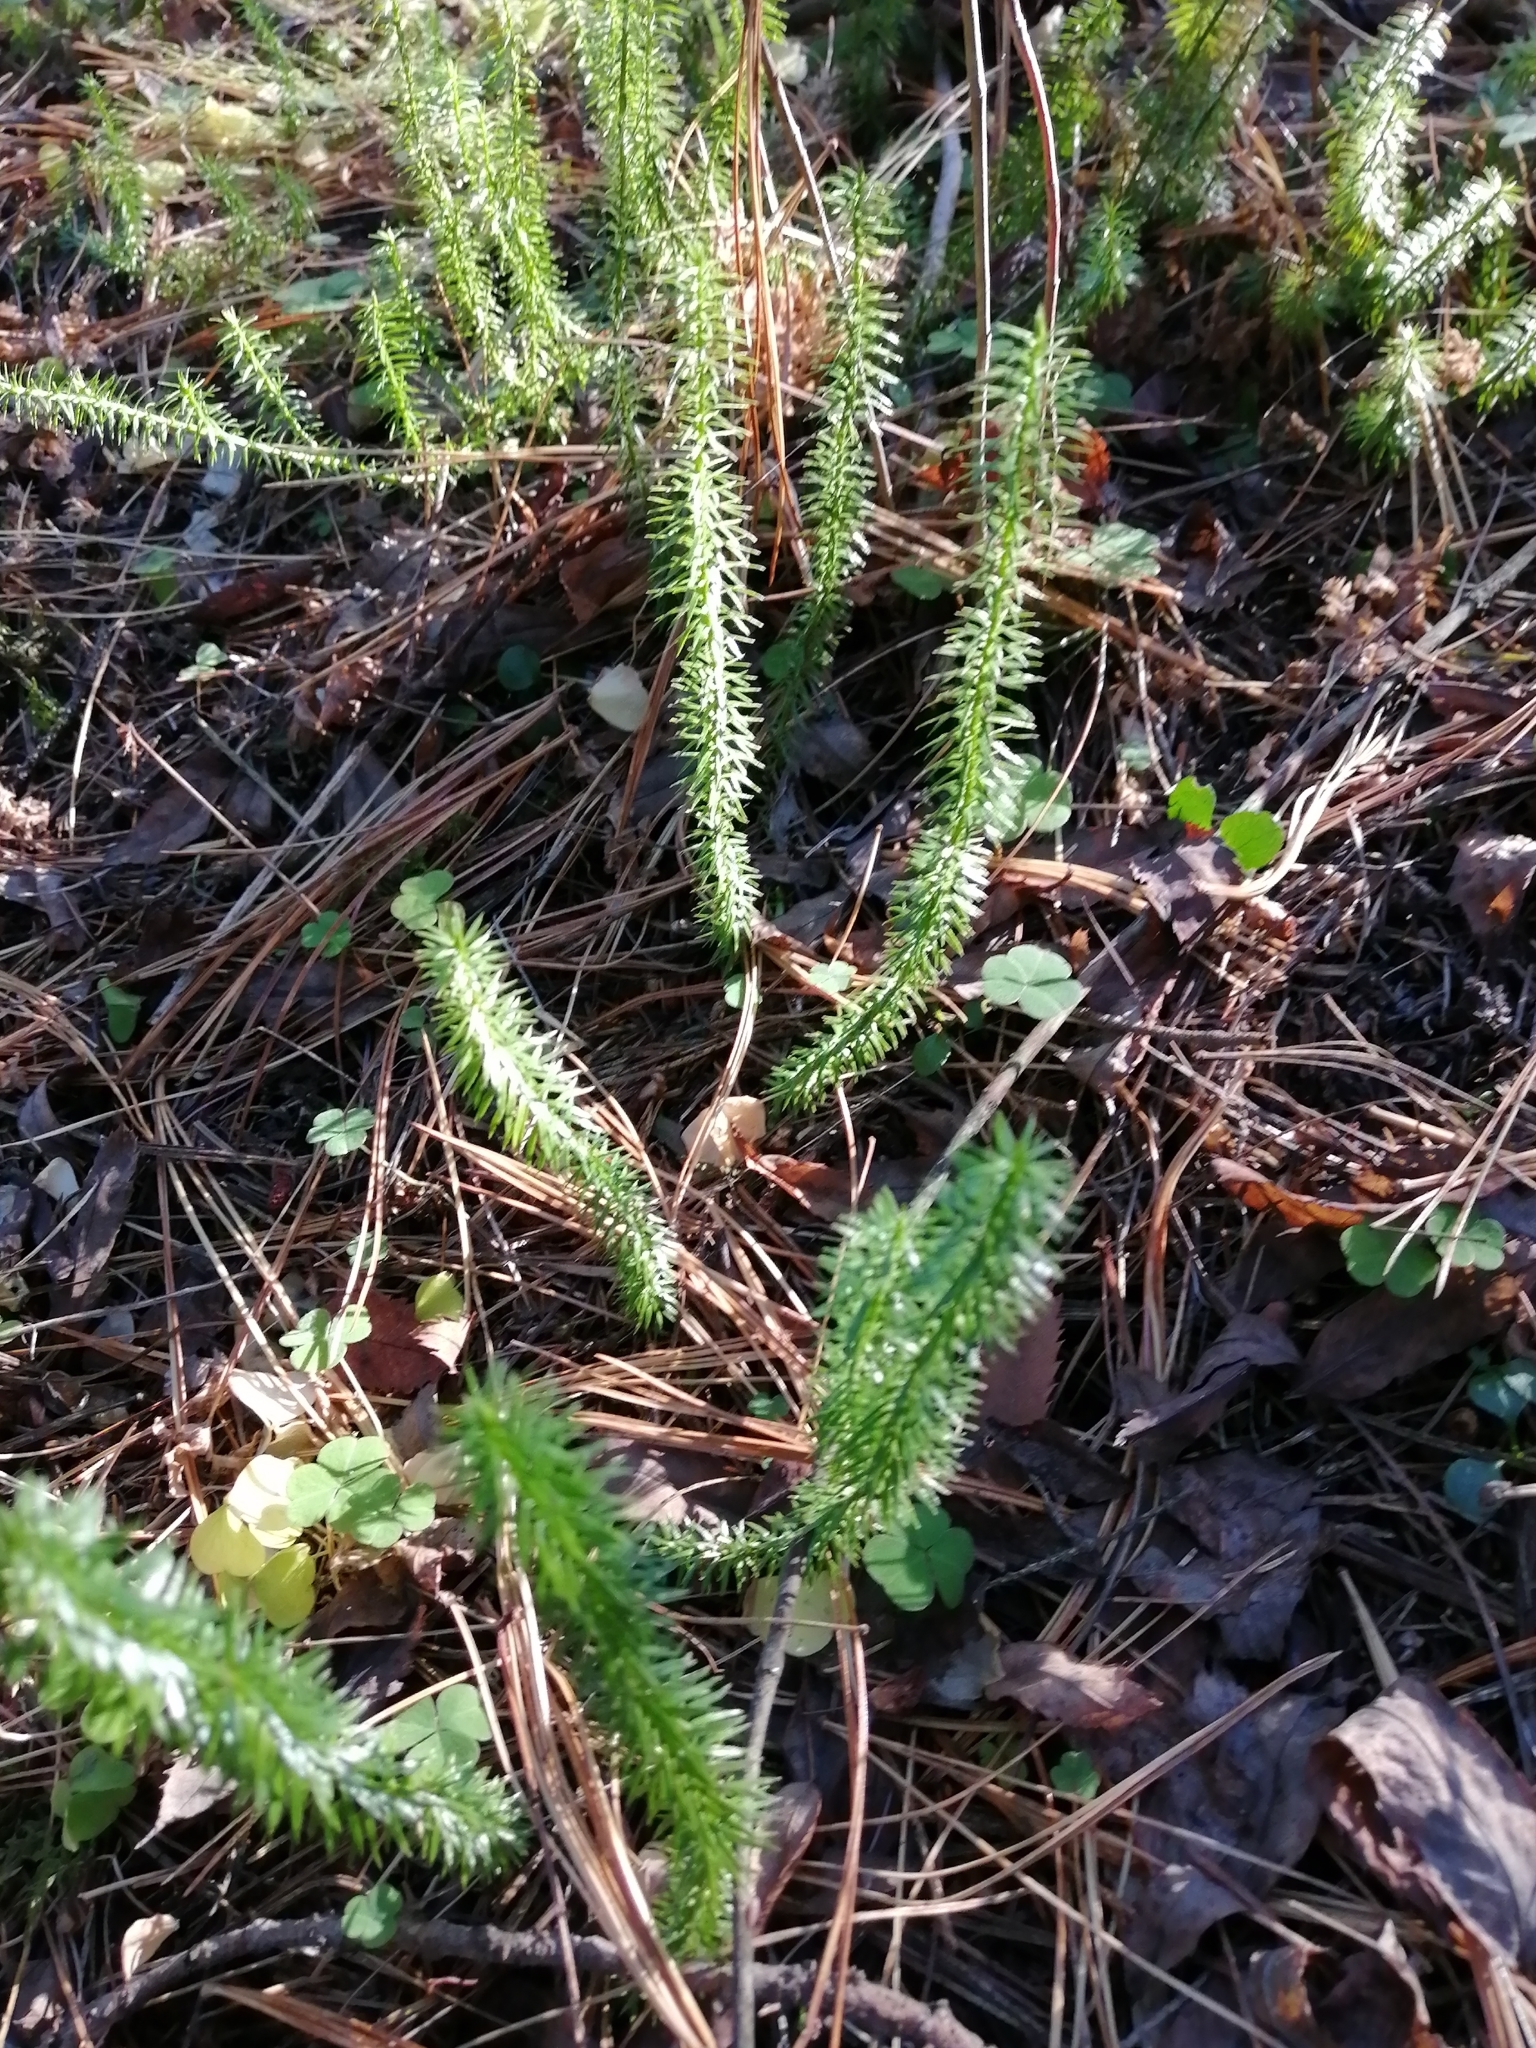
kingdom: Plantae
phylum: Tracheophyta
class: Lycopodiopsida
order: Lycopodiales
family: Lycopodiaceae
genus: Spinulum
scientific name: Spinulum annotinum
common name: Interrupted club-moss
